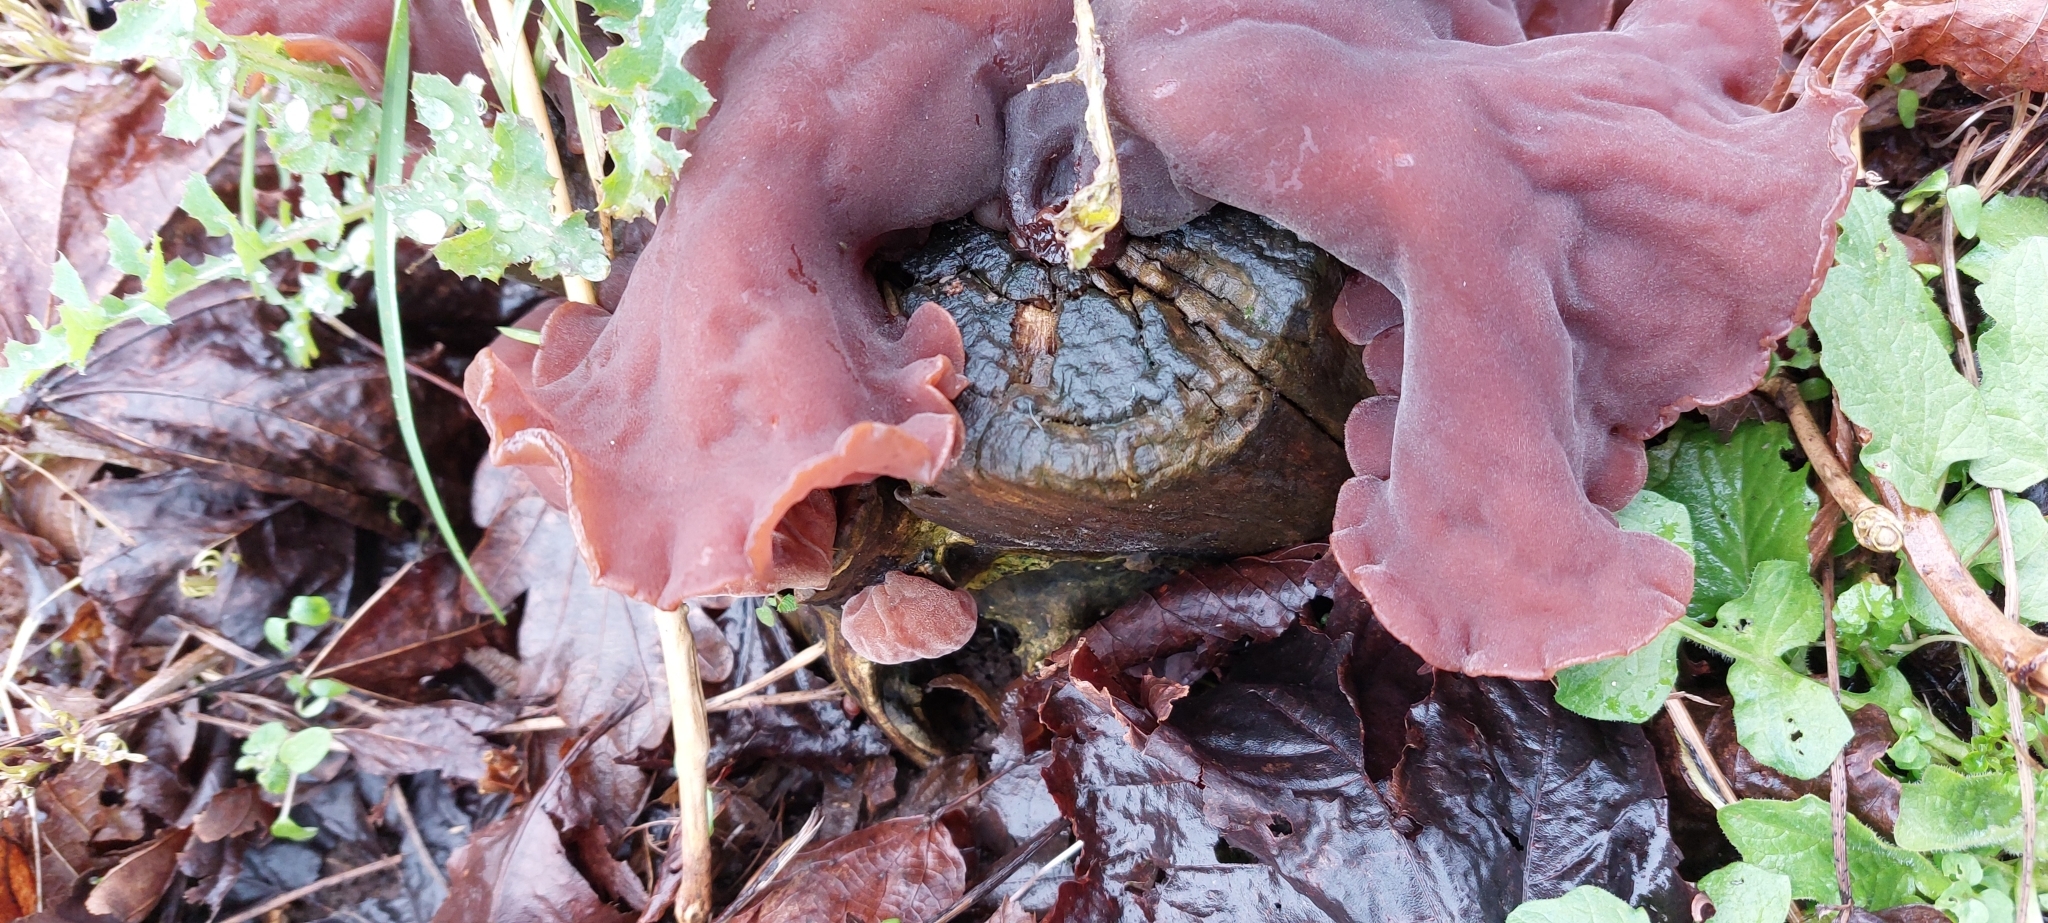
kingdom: Fungi
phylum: Basidiomycota
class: Agaricomycetes
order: Auriculariales
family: Auriculariaceae
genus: Auricularia
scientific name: Auricularia auricula-judae
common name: Jelly ear
